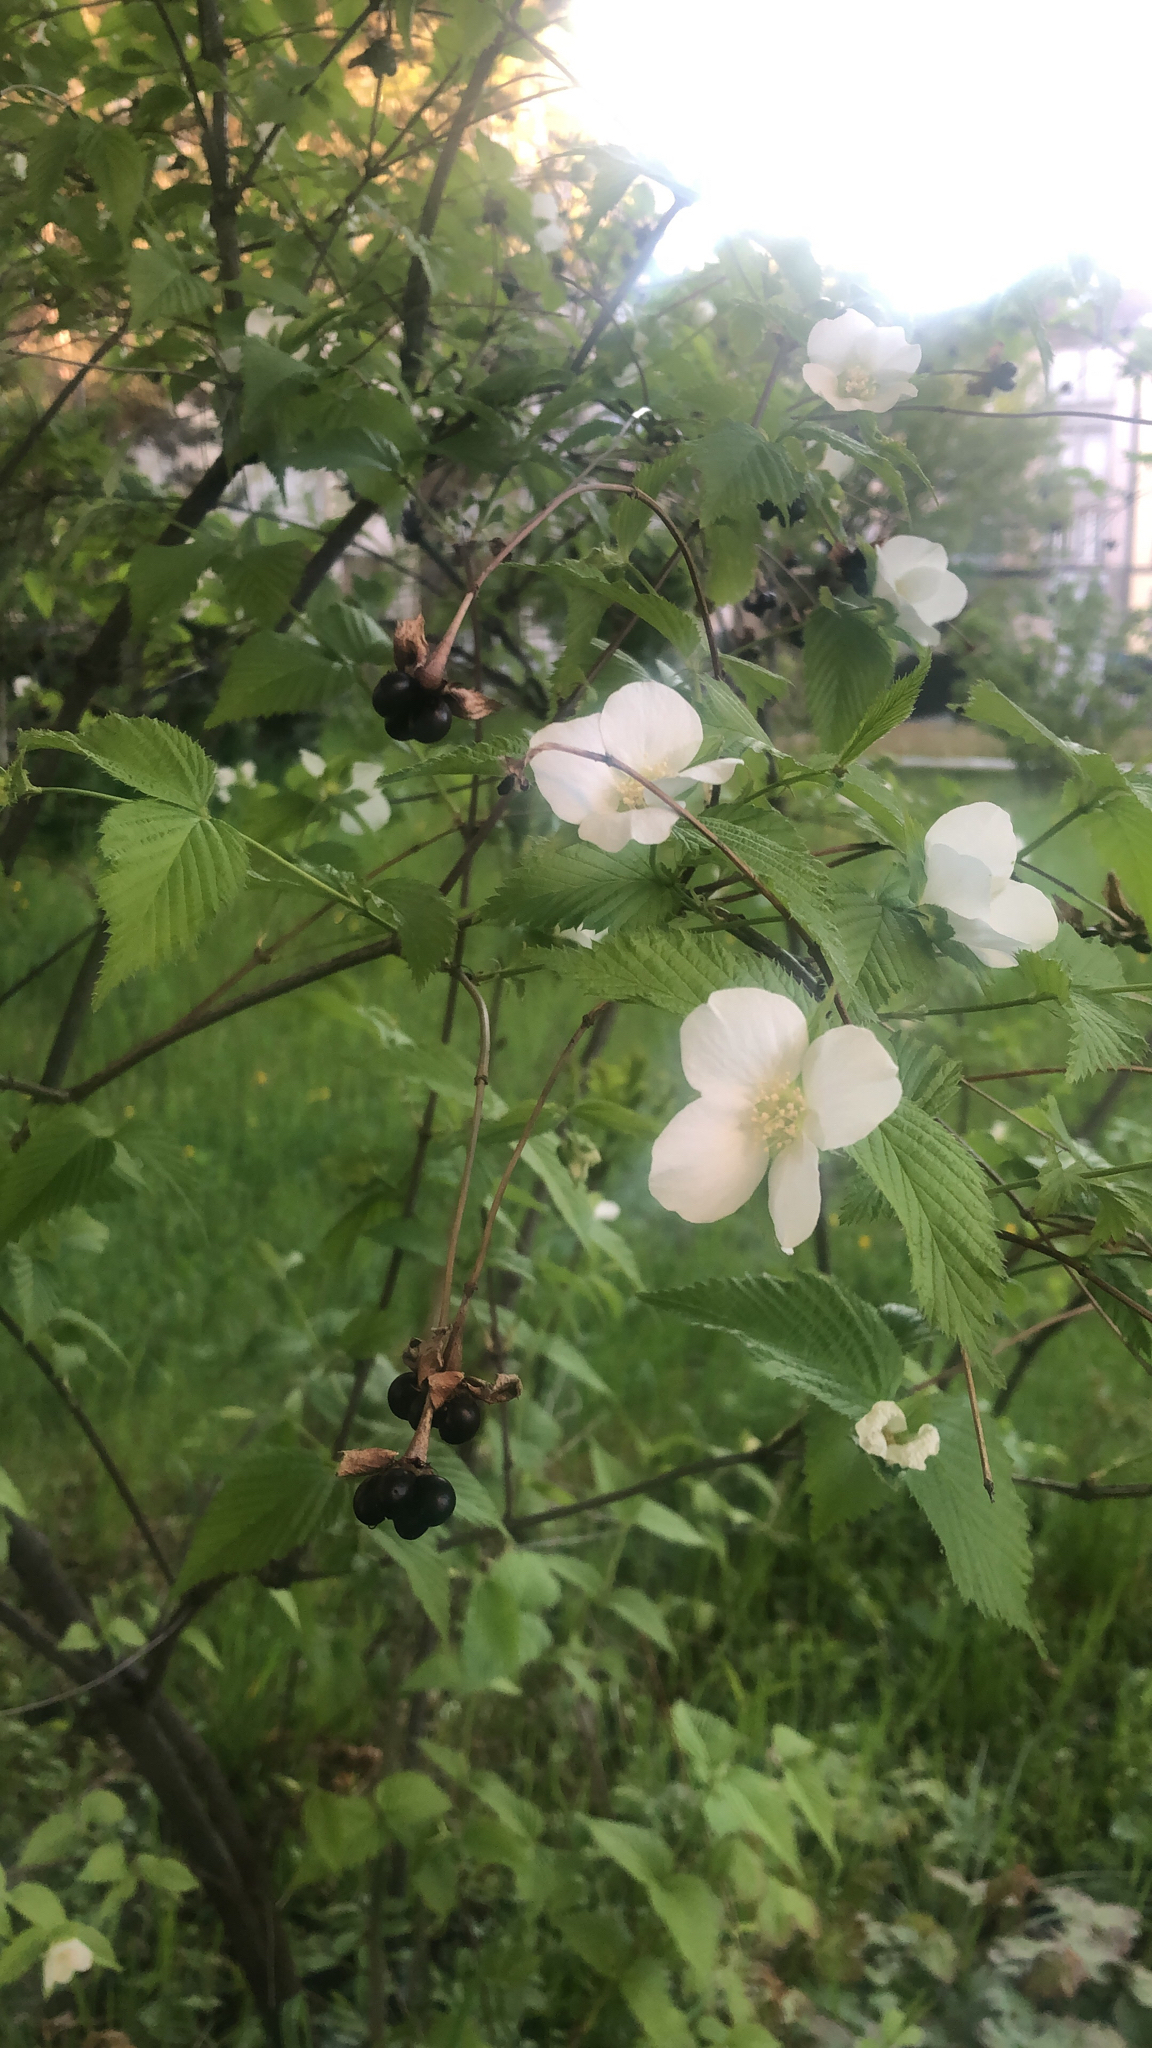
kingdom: Plantae
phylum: Tracheophyta
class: Magnoliopsida
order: Rosales
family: Rosaceae
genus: Rhodotypos
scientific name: Rhodotypos scandens
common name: Jetbead
